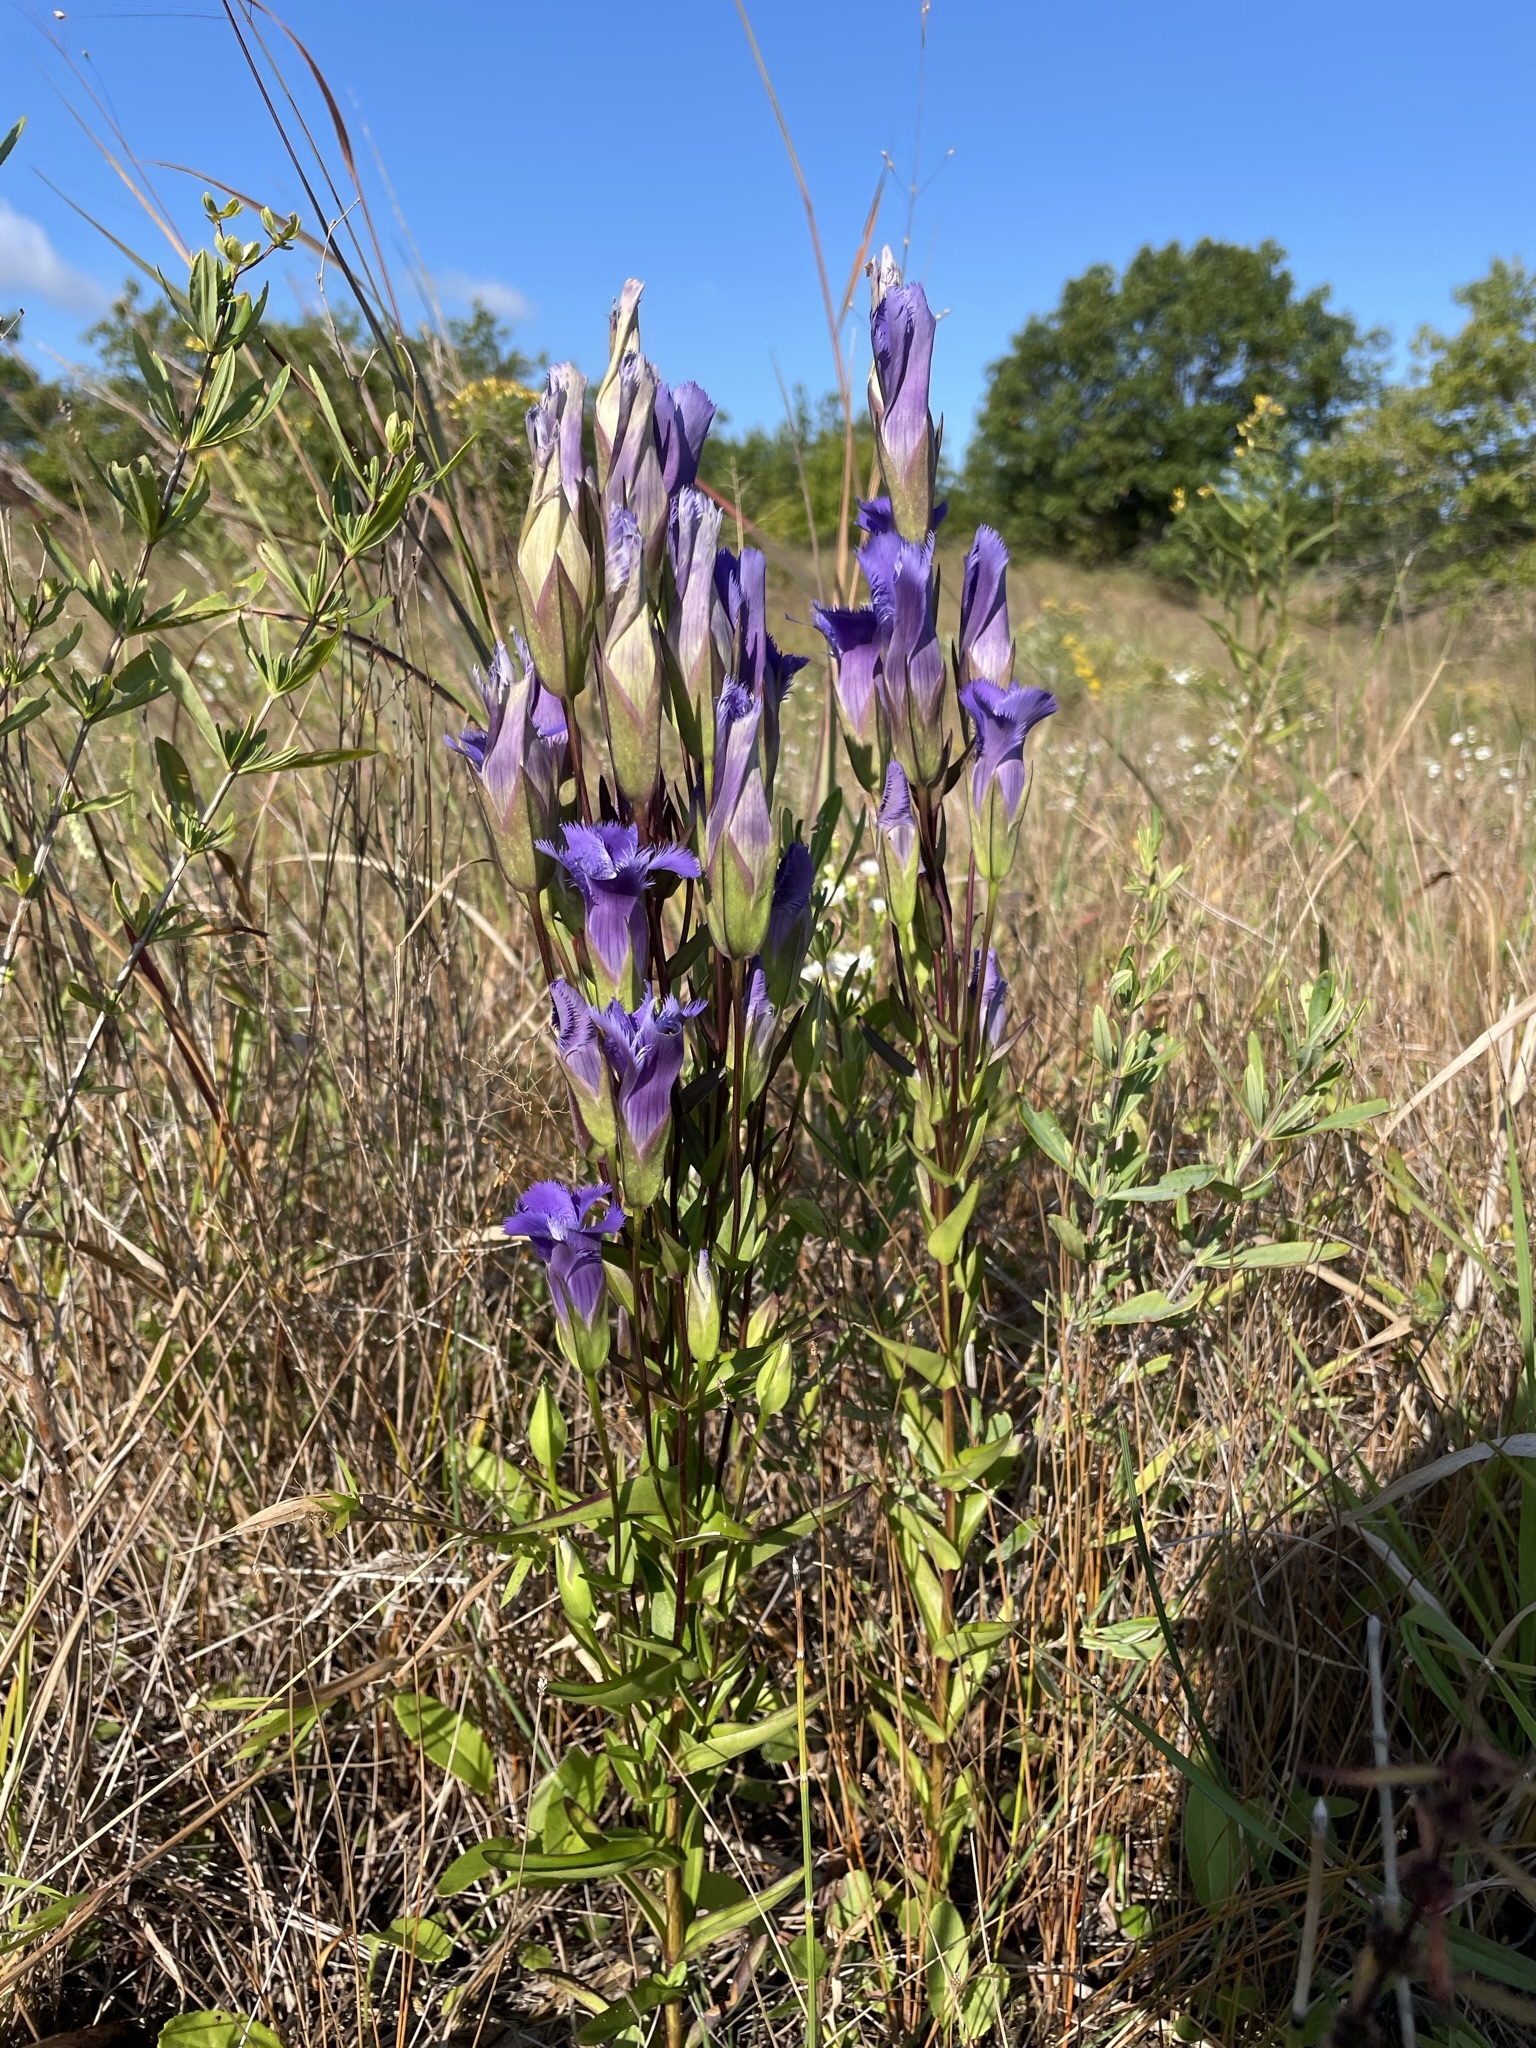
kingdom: Plantae
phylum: Tracheophyta
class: Magnoliopsida
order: Gentianales
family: Gentianaceae
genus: Gentianopsis
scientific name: Gentianopsis crinita
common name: Fringed-gentian
